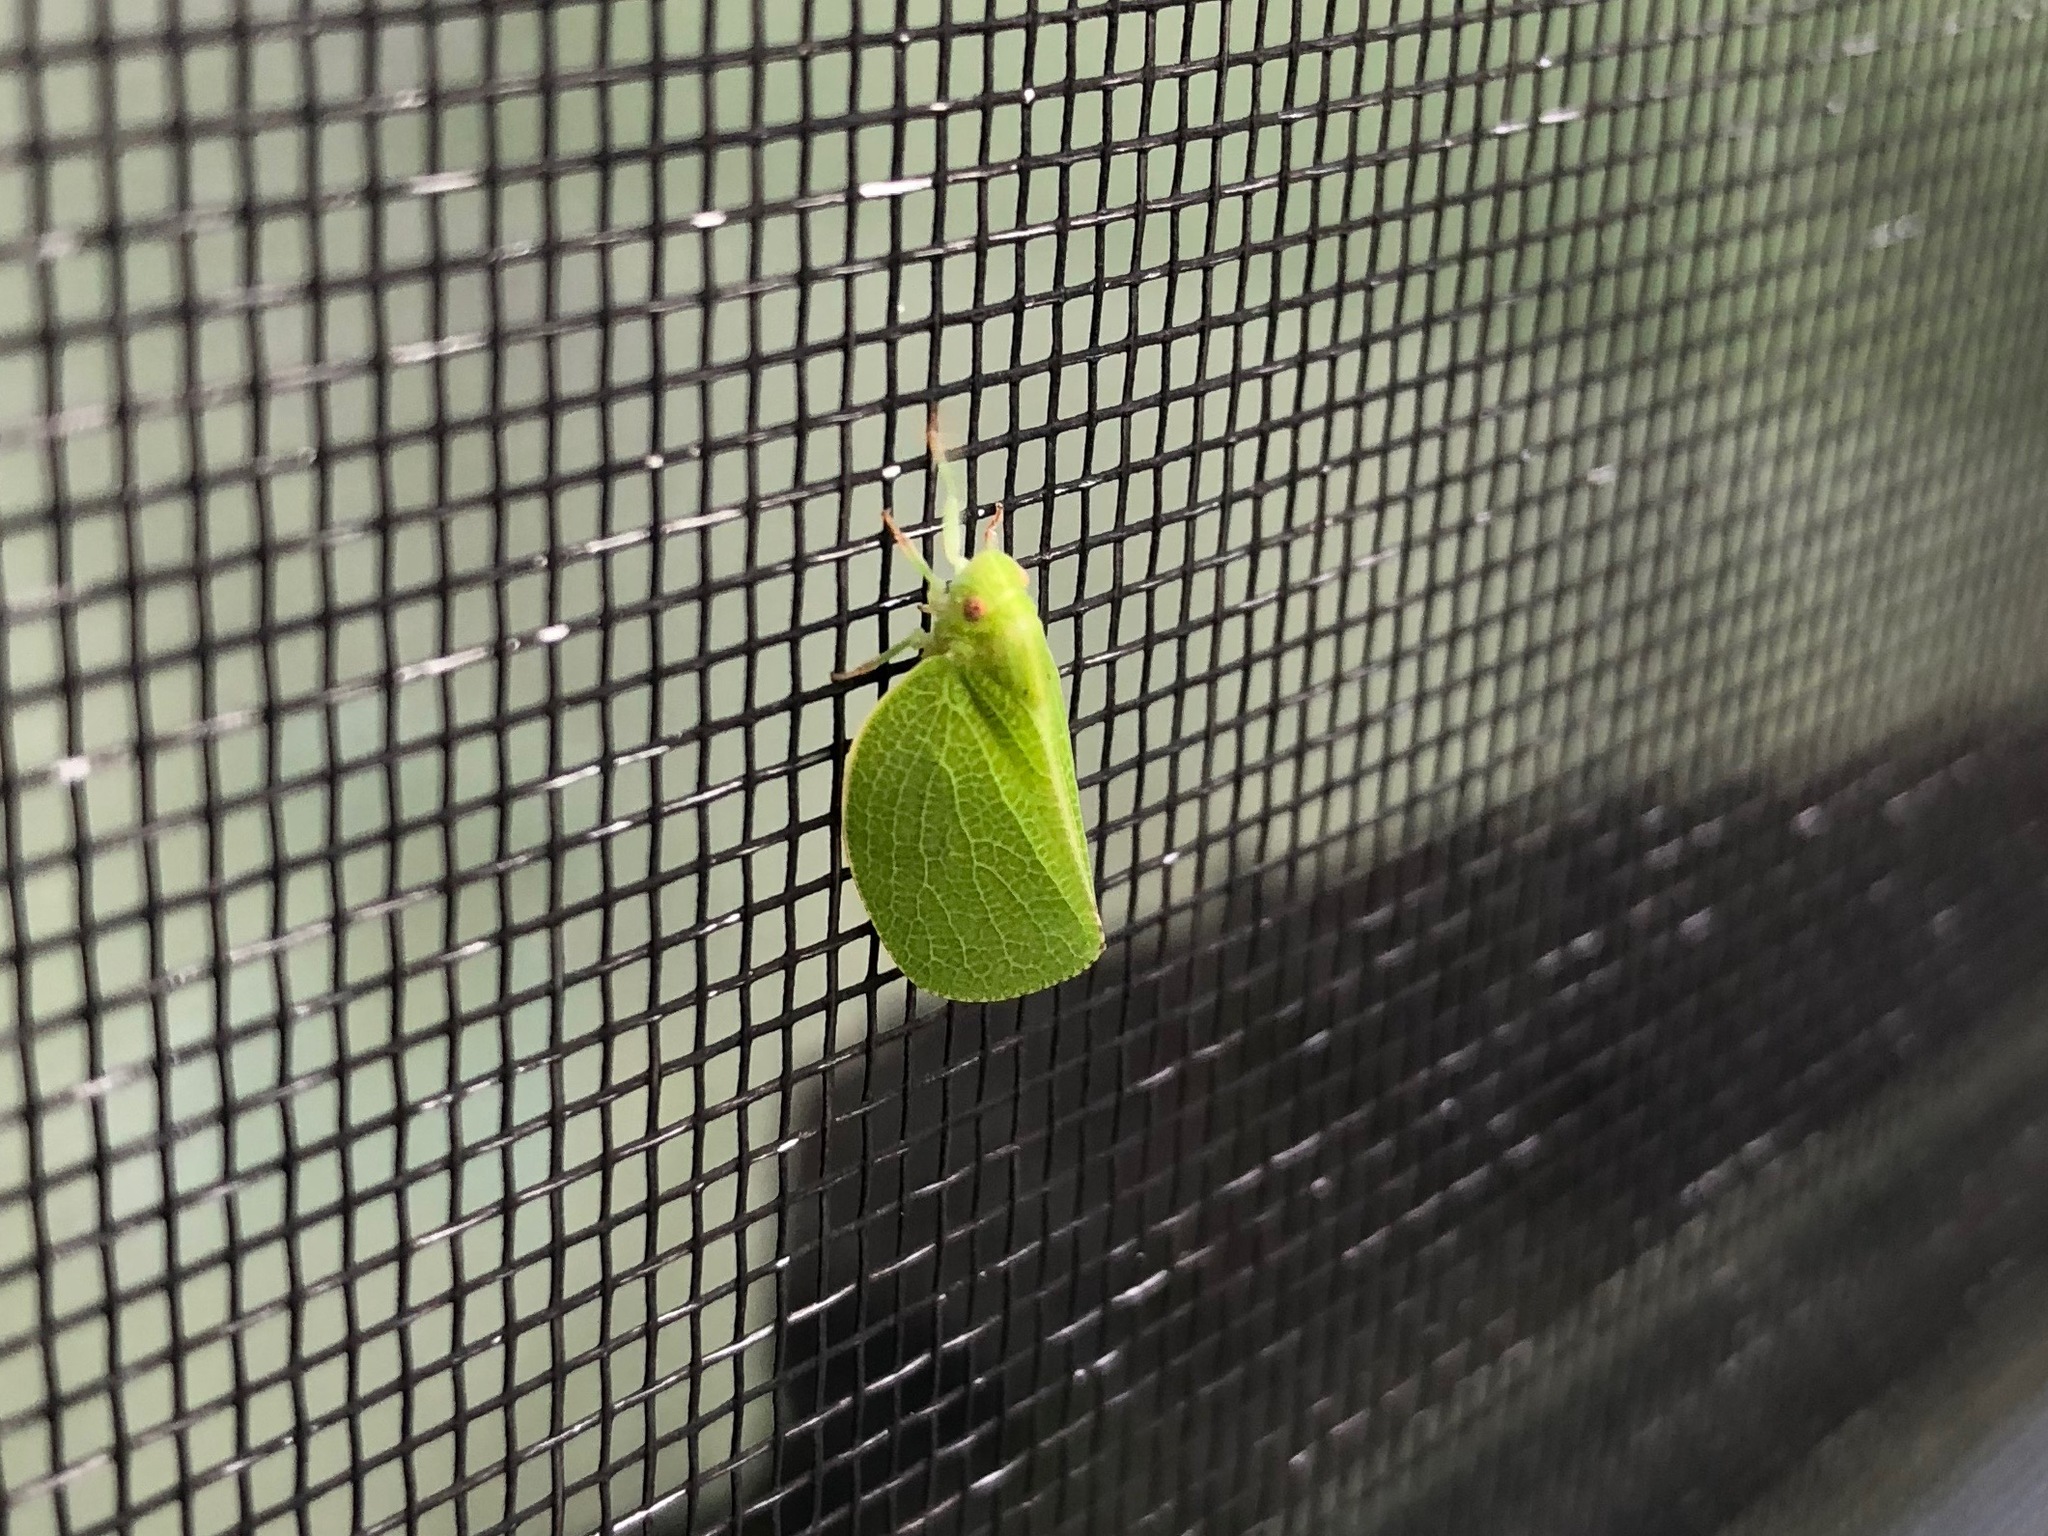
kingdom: Animalia
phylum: Arthropoda
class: Insecta
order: Hemiptera
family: Acanaloniidae
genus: Acanalonia
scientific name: Acanalonia conica
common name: Green cone-headed planthopper
